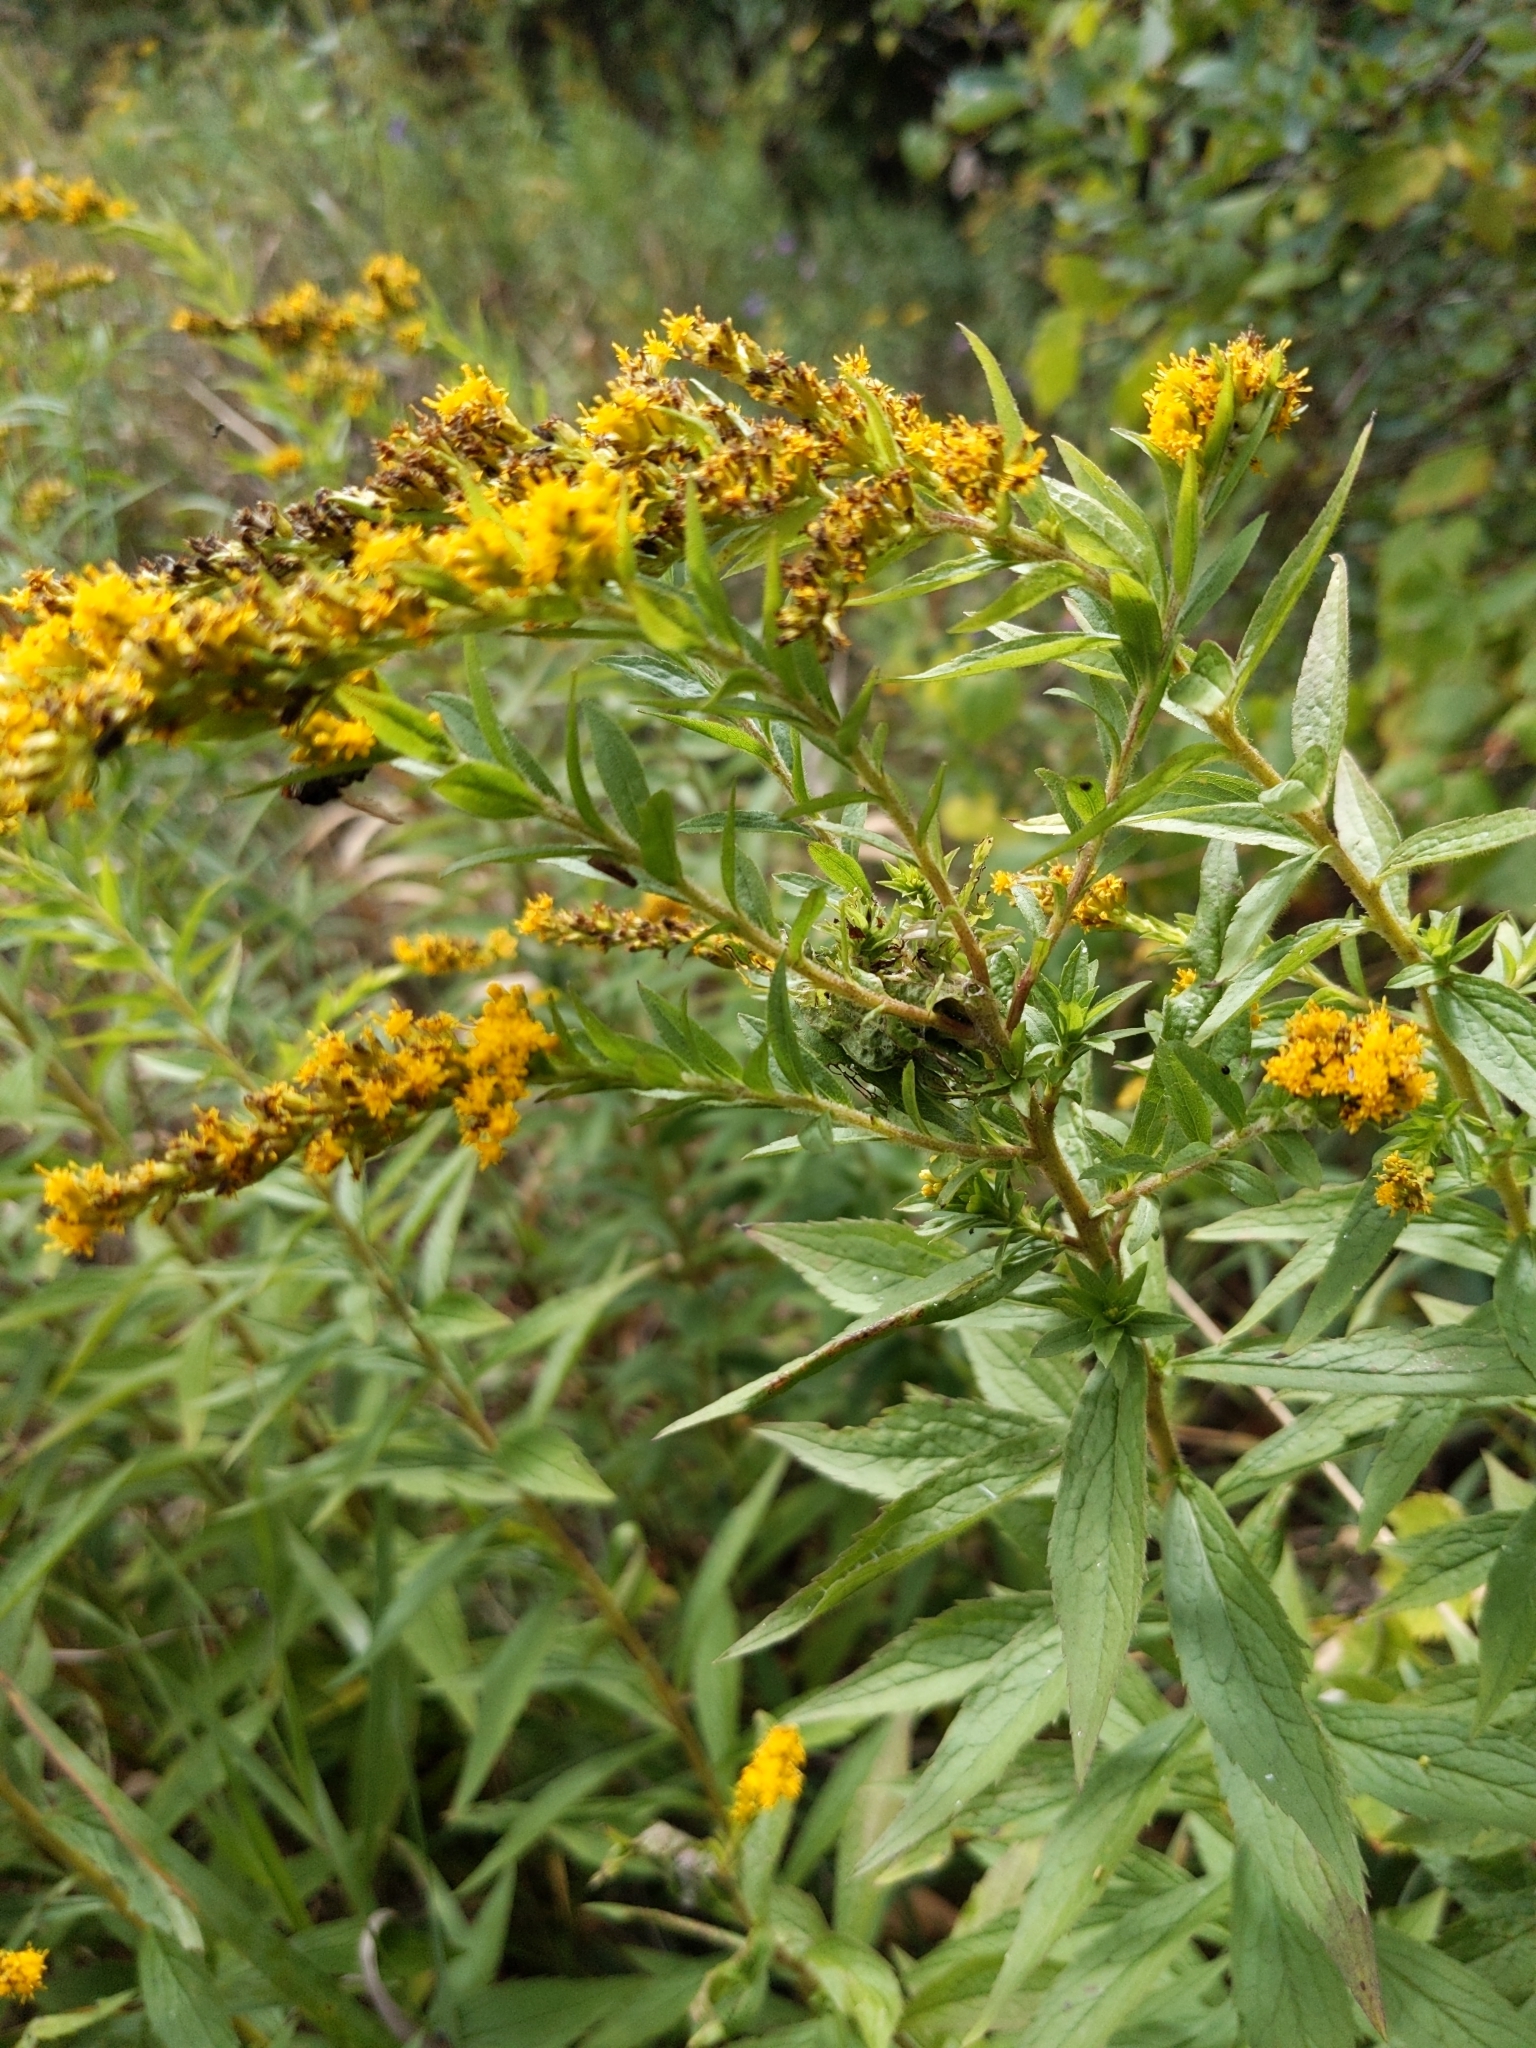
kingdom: Plantae
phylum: Tracheophyta
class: Magnoliopsida
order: Asterales
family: Asteraceae
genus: Solidago
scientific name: Solidago rugosa
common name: Rough-stemmed goldenrod
